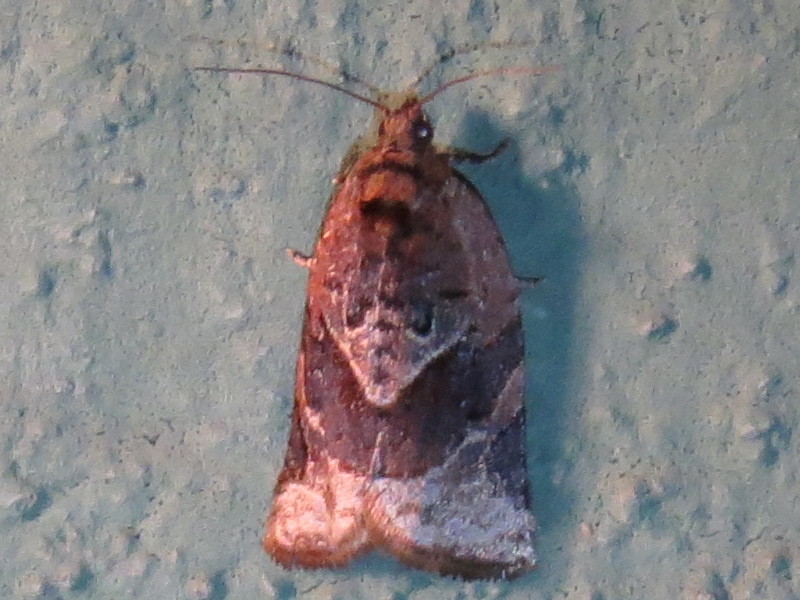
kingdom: Animalia
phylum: Arthropoda
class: Insecta
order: Lepidoptera
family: Tortricidae
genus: Argyrotaenia
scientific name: Argyrotaenia velutinana
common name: Red-banded leafroller moth
